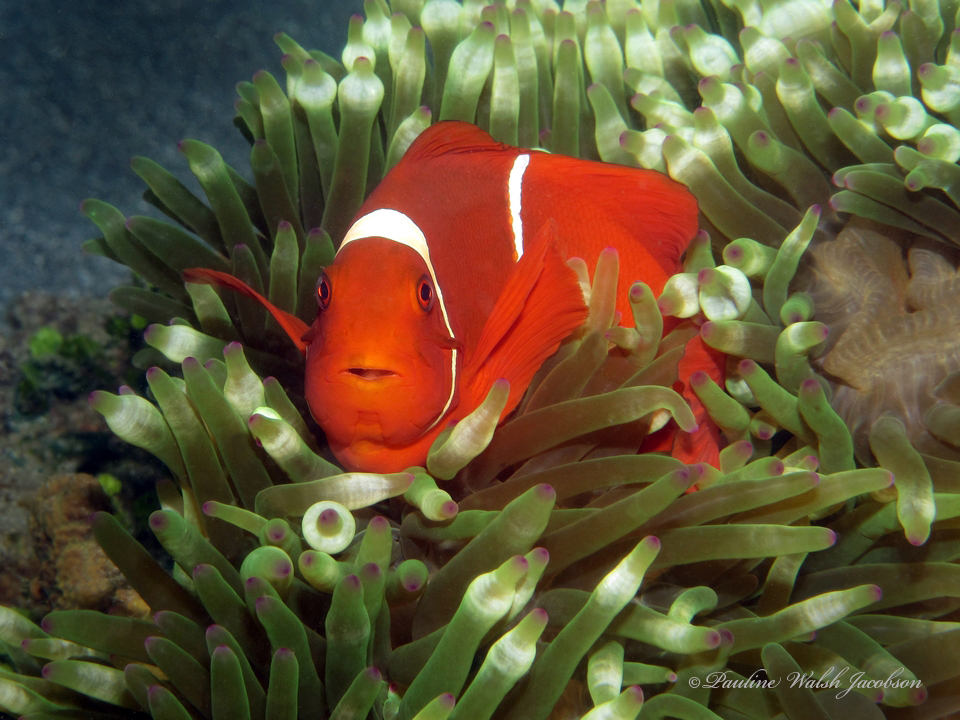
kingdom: Animalia
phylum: Chordata
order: Perciformes
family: Pomacentridae
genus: Premnas
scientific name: Premnas biaculeatus
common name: Spinecheek anemonefish
